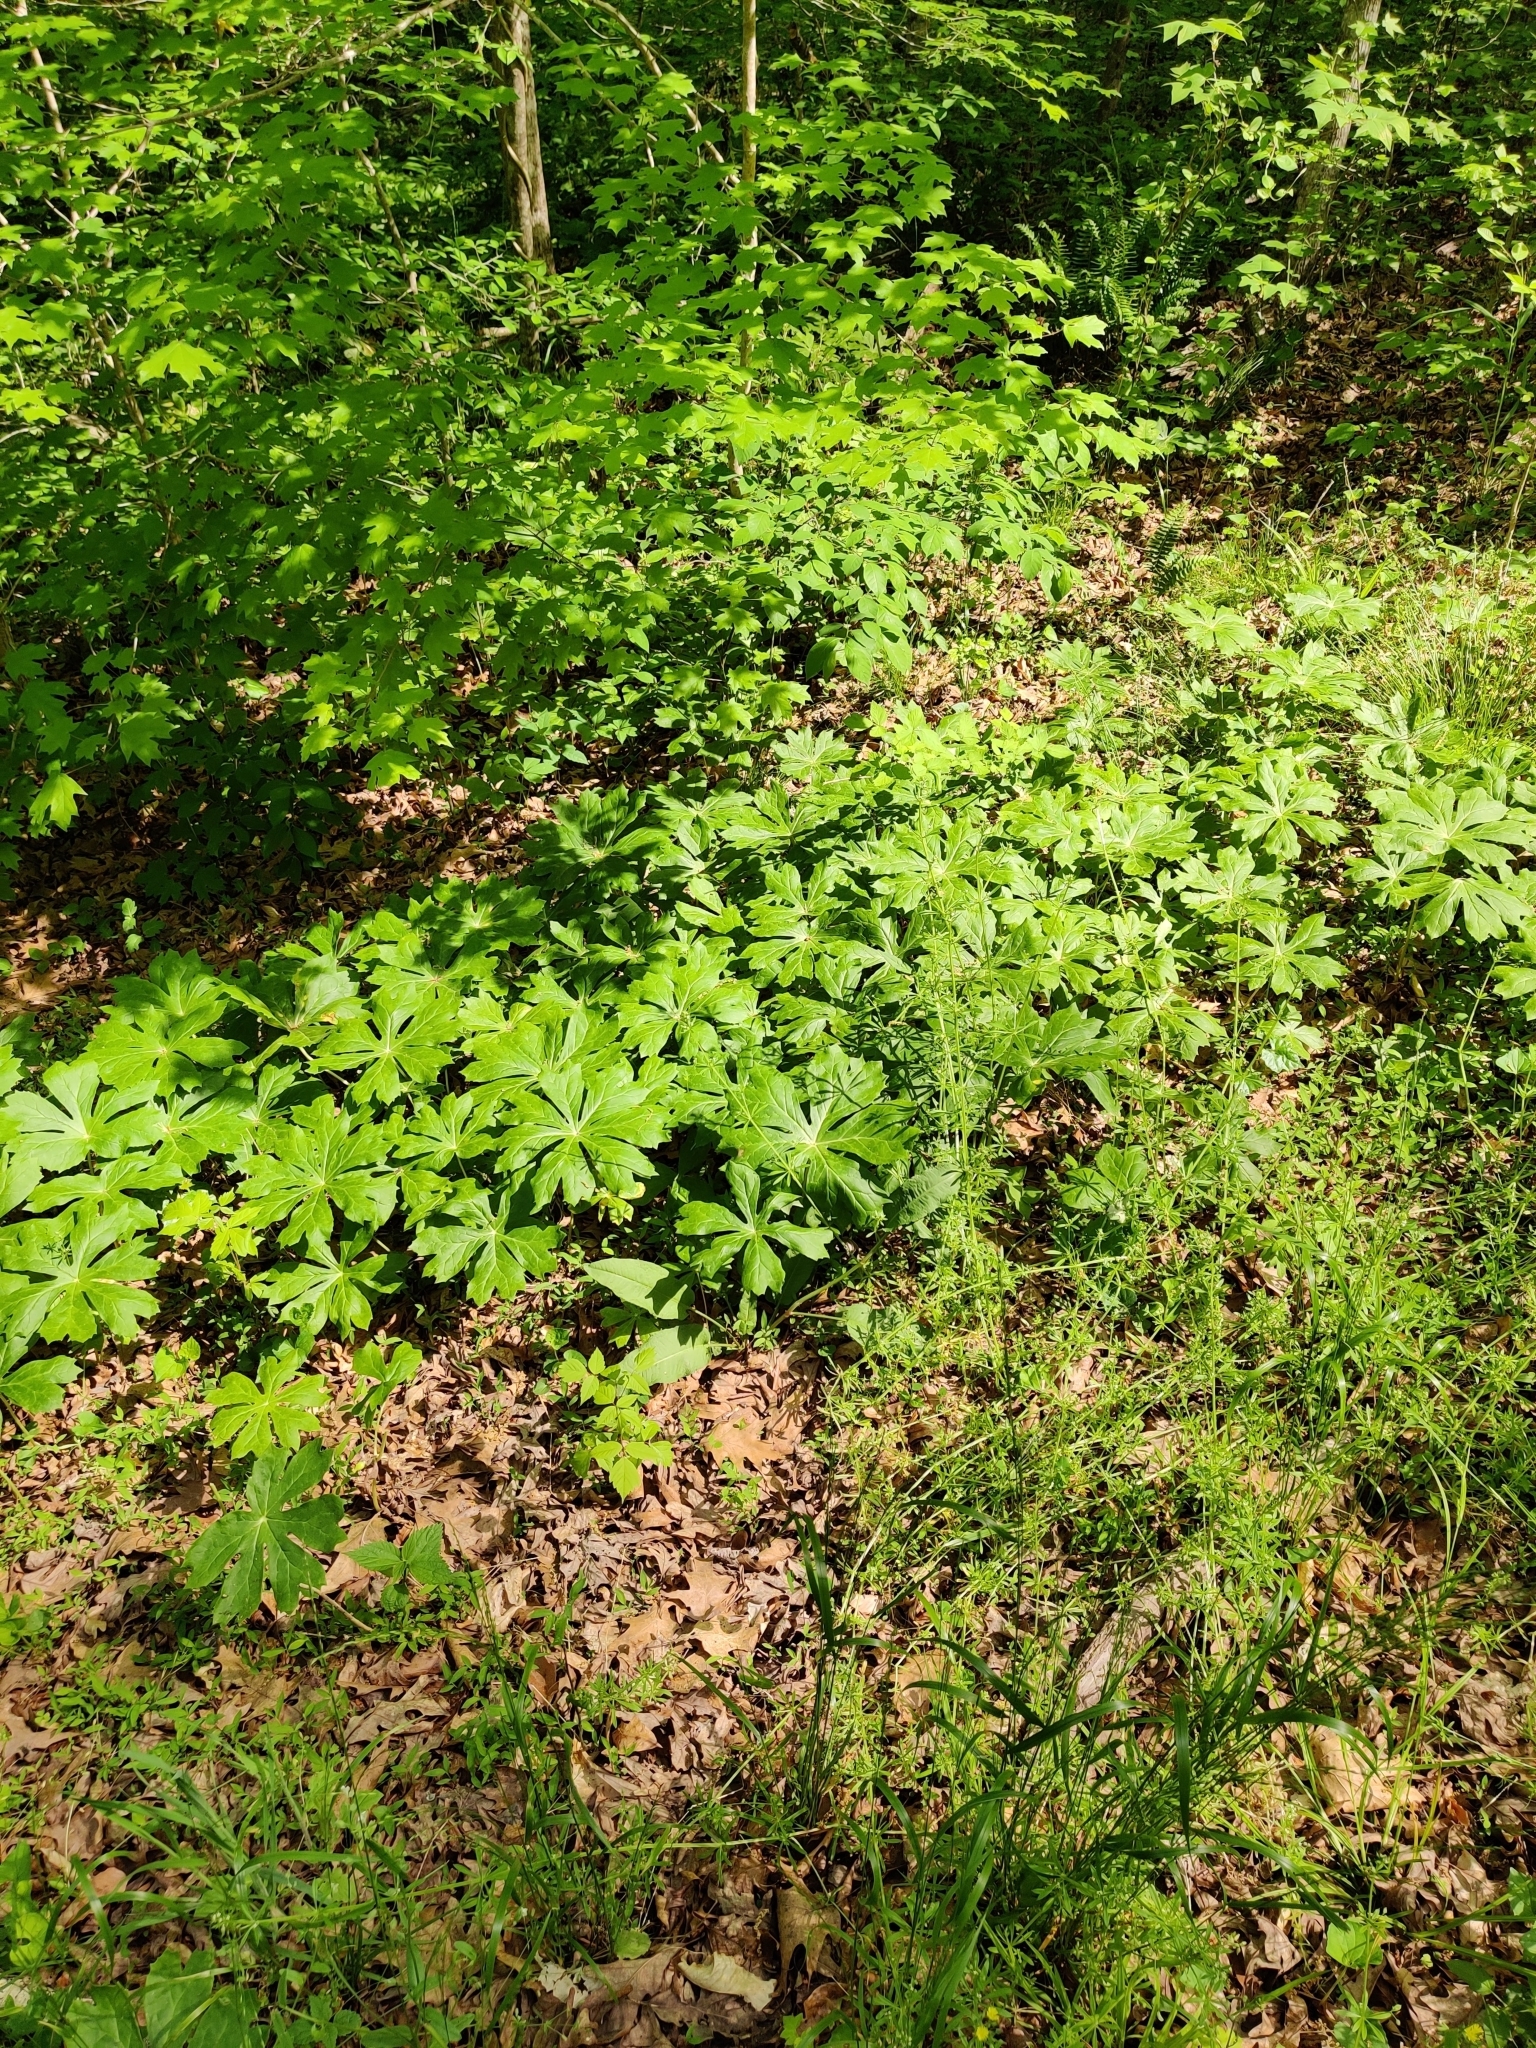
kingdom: Plantae
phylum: Tracheophyta
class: Magnoliopsida
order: Ranunculales
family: Berberidaceae
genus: Podophyllum
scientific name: Podophyllum peltatum
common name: Wild mandrake
